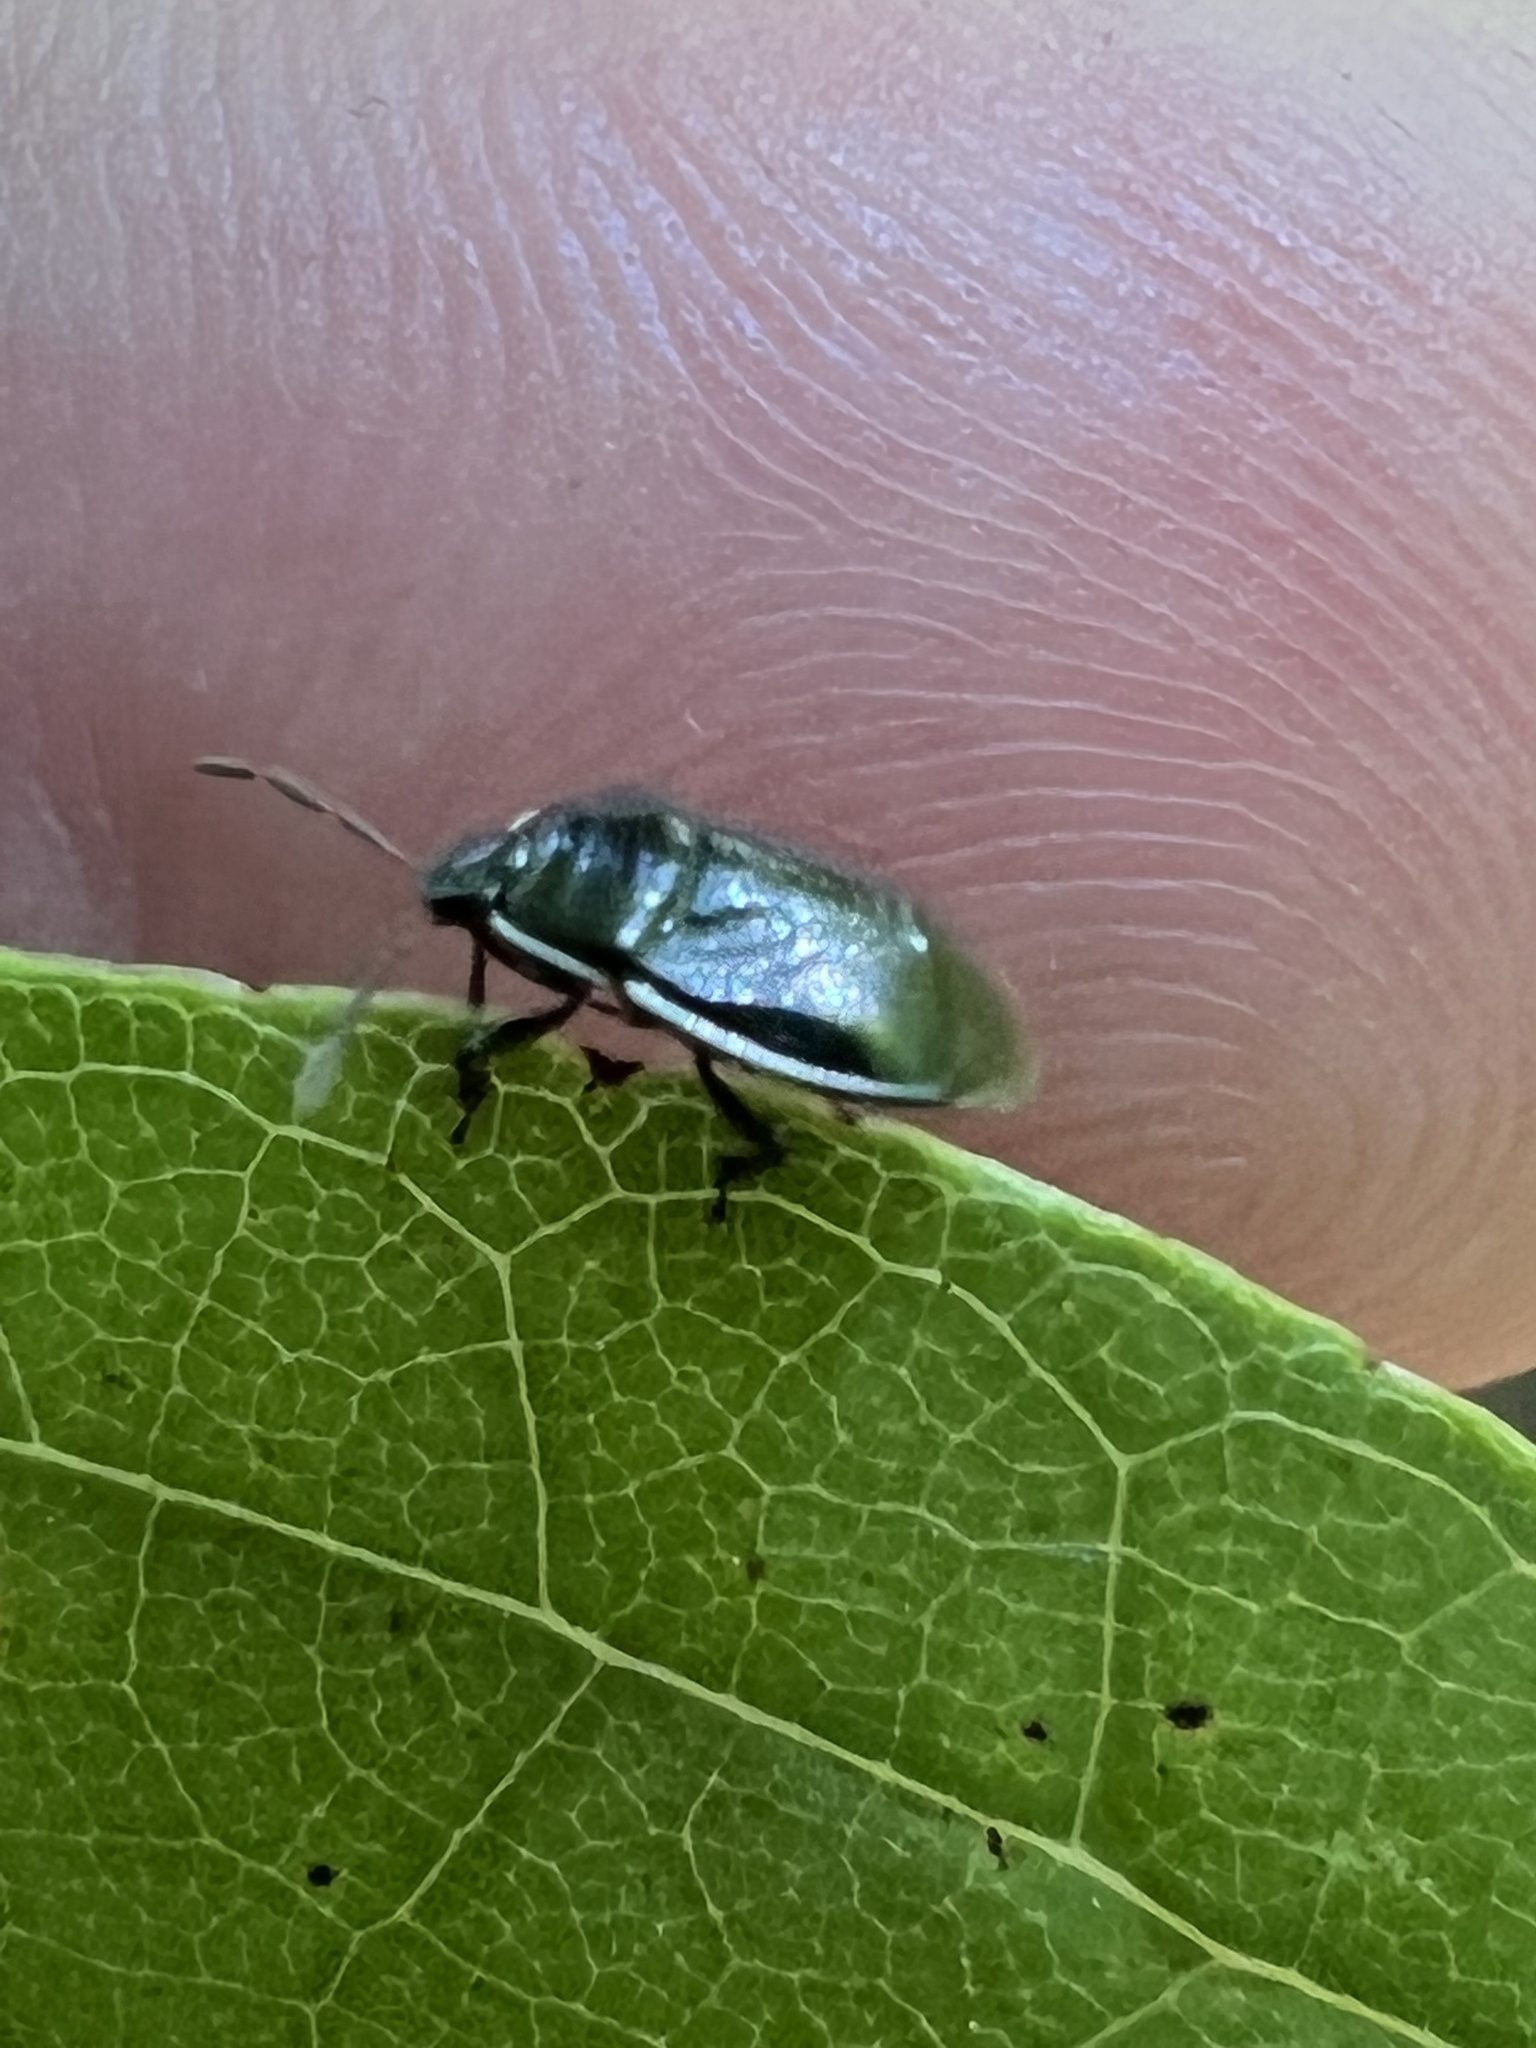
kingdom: Animalia
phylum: Arthropoda
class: Insecta
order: Hemiptera
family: Cydnidae
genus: Sehirus
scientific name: Sehirus cinctus
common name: White-margined burrower bug
